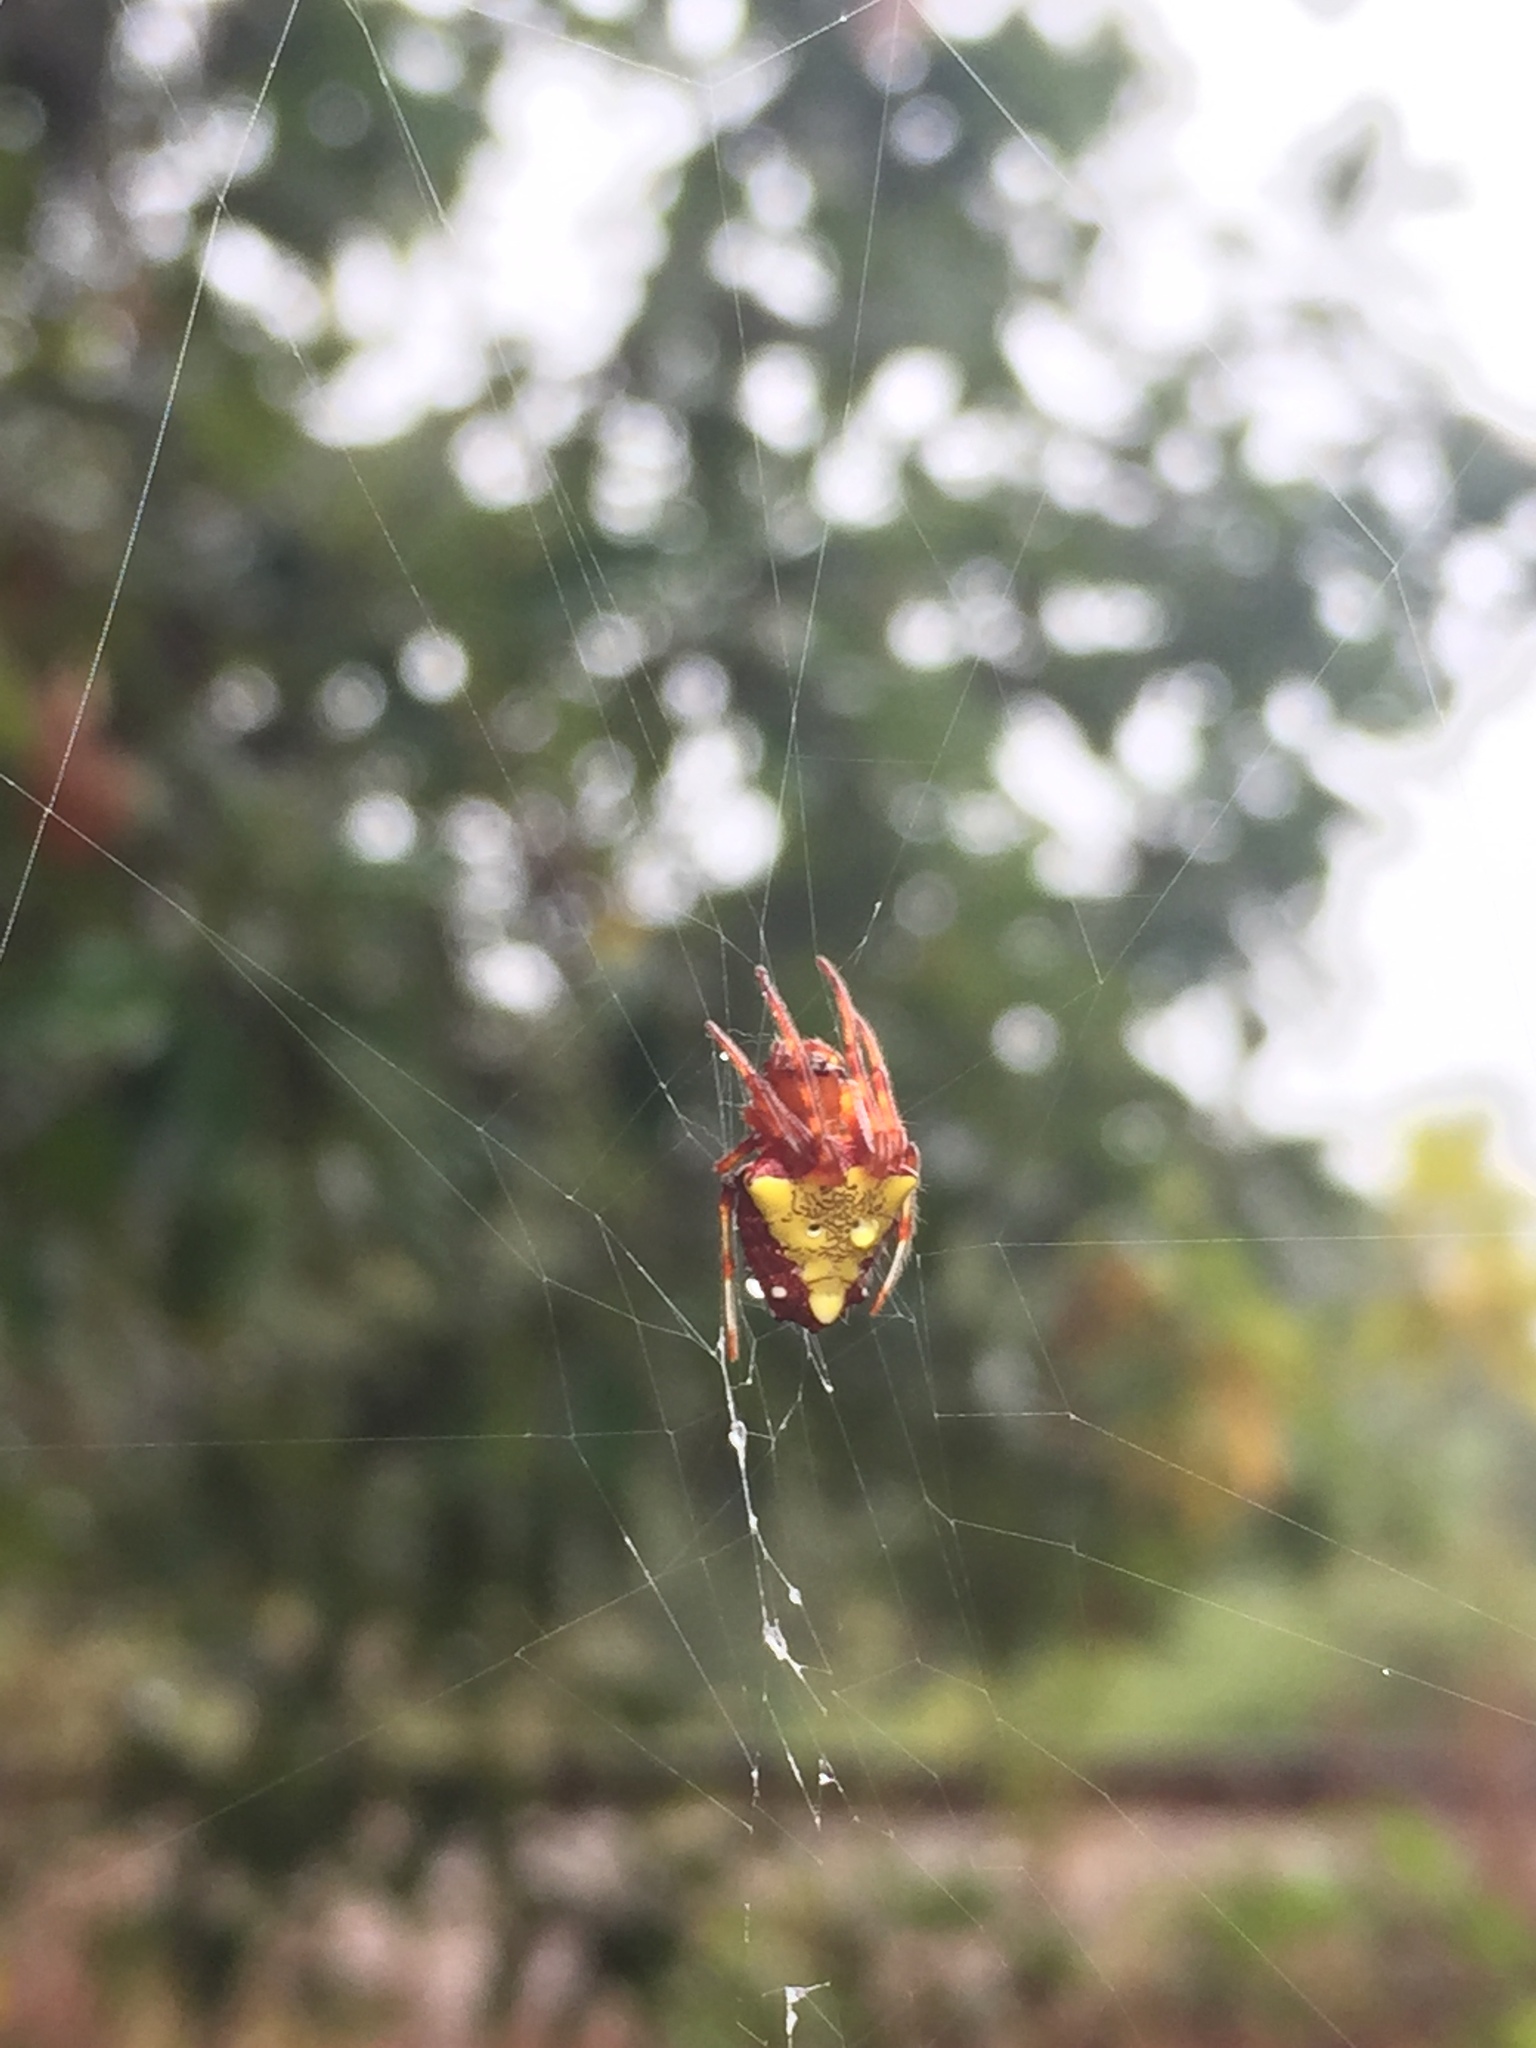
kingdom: Animalia
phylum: Arthropoda
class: Arachnida
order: Araneae
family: Araneidae
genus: Verrucosa
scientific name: Verrucosa arenata
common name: Orb weavers
